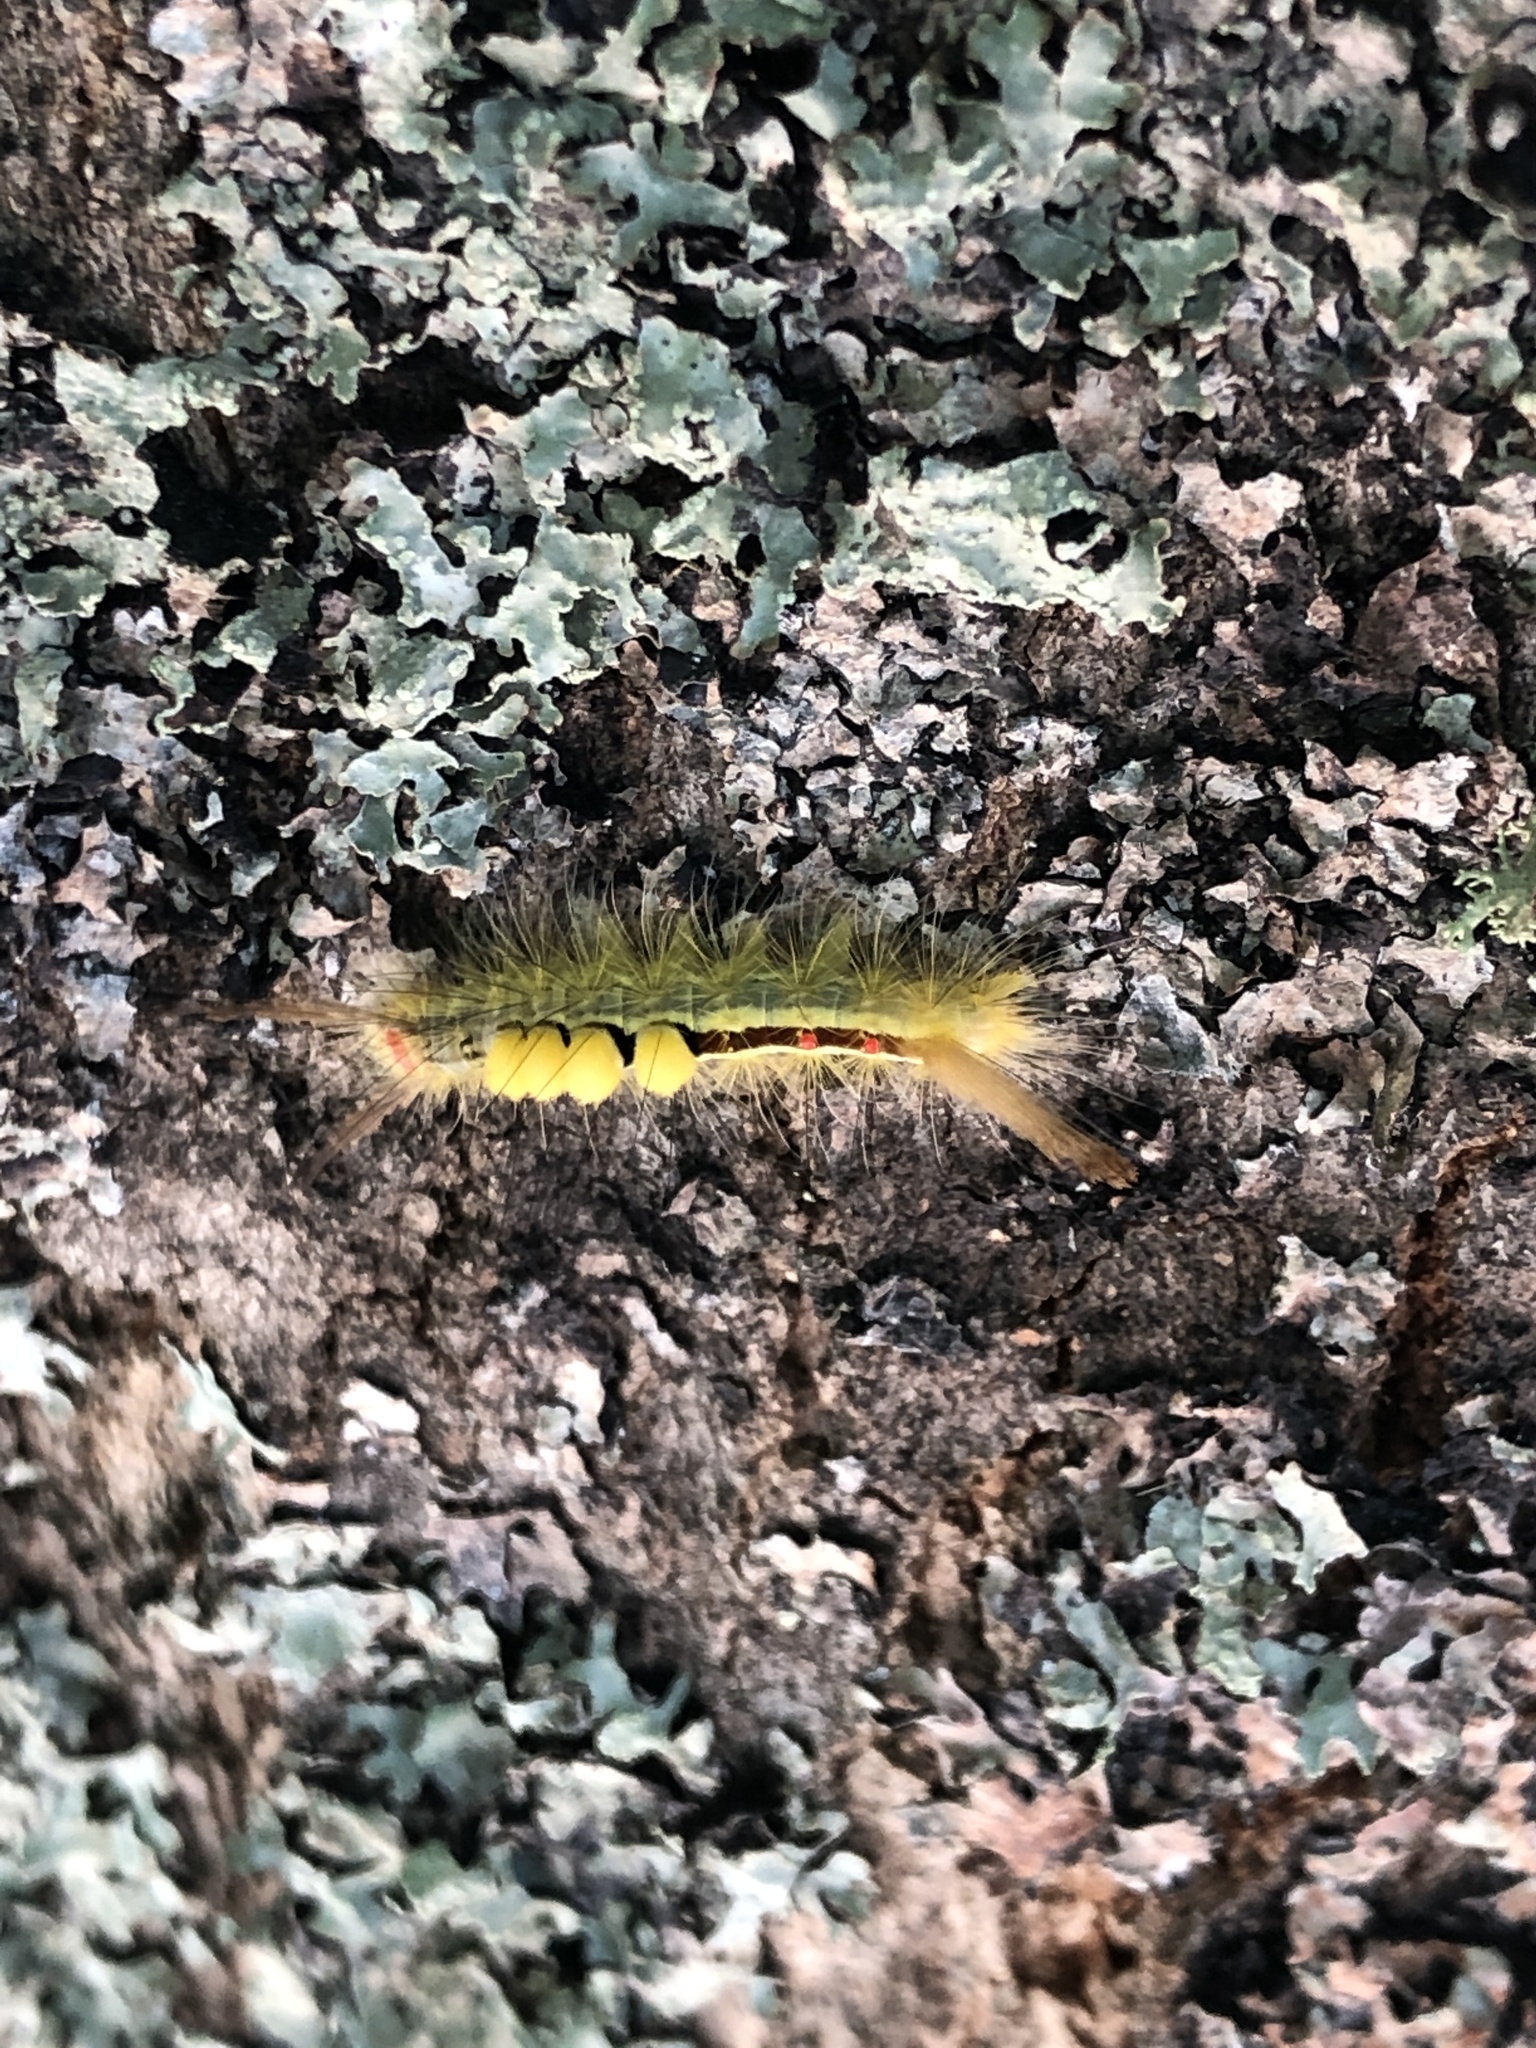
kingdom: Animalia
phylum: Arthropoda
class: Insecta
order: Lepidoptera
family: Erebidae
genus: Orgyia
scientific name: Orgyia leucostigma
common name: White-marked tussock moth
